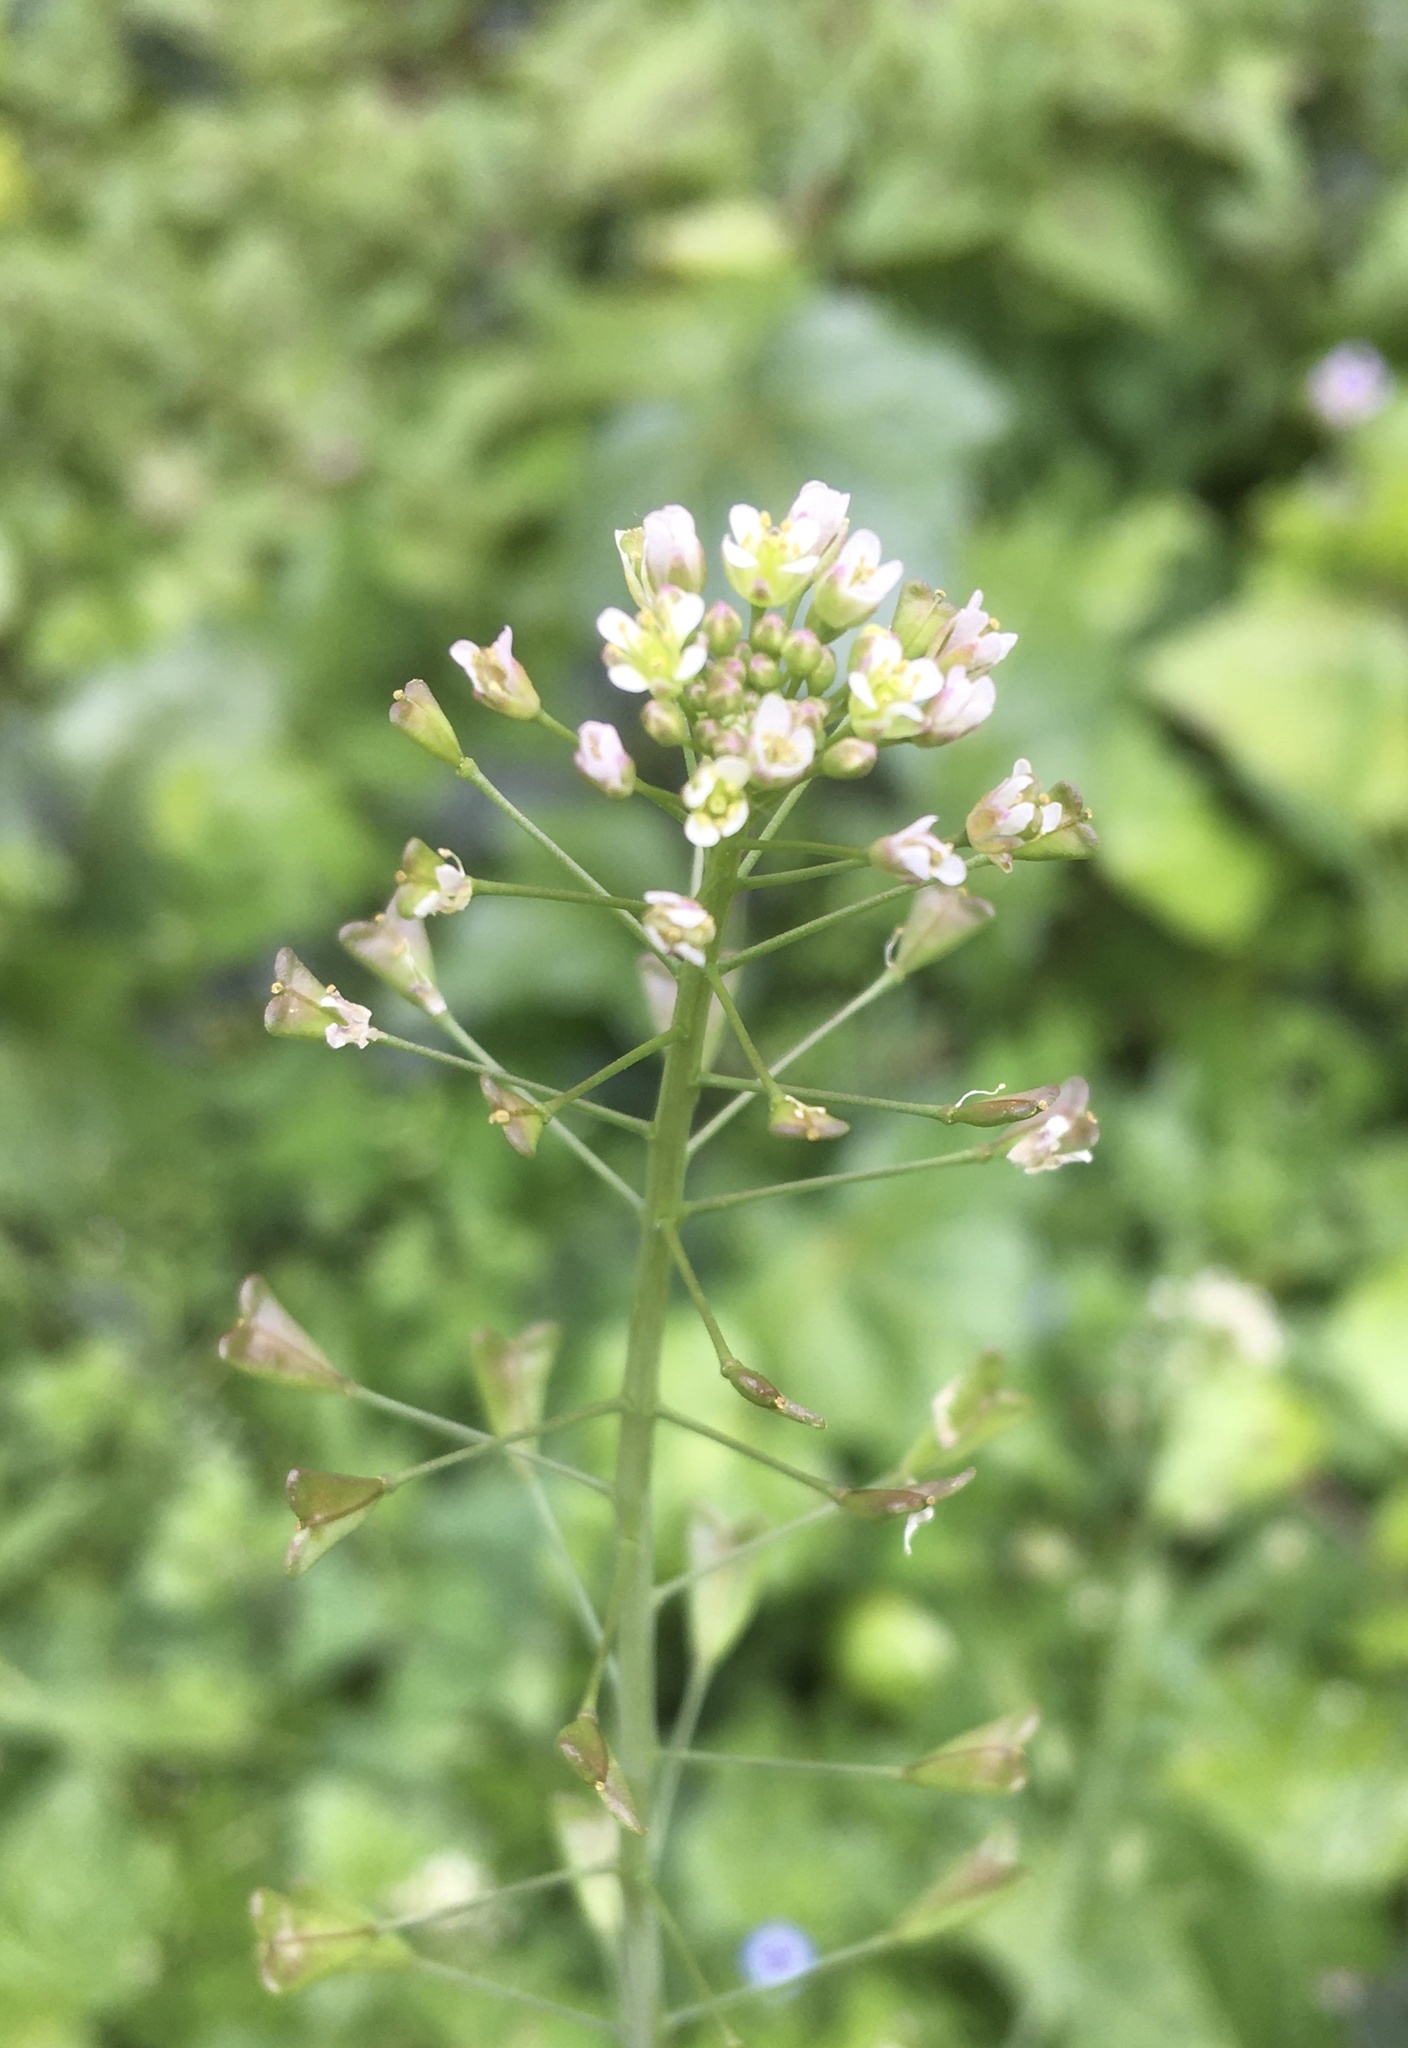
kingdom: Plantae
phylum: Tracheophyta
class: Magnoliopsida
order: Brassicales
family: Brassicaceae
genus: Capsella
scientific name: Capsella bursa-pastoris
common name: Shepherd's purse
